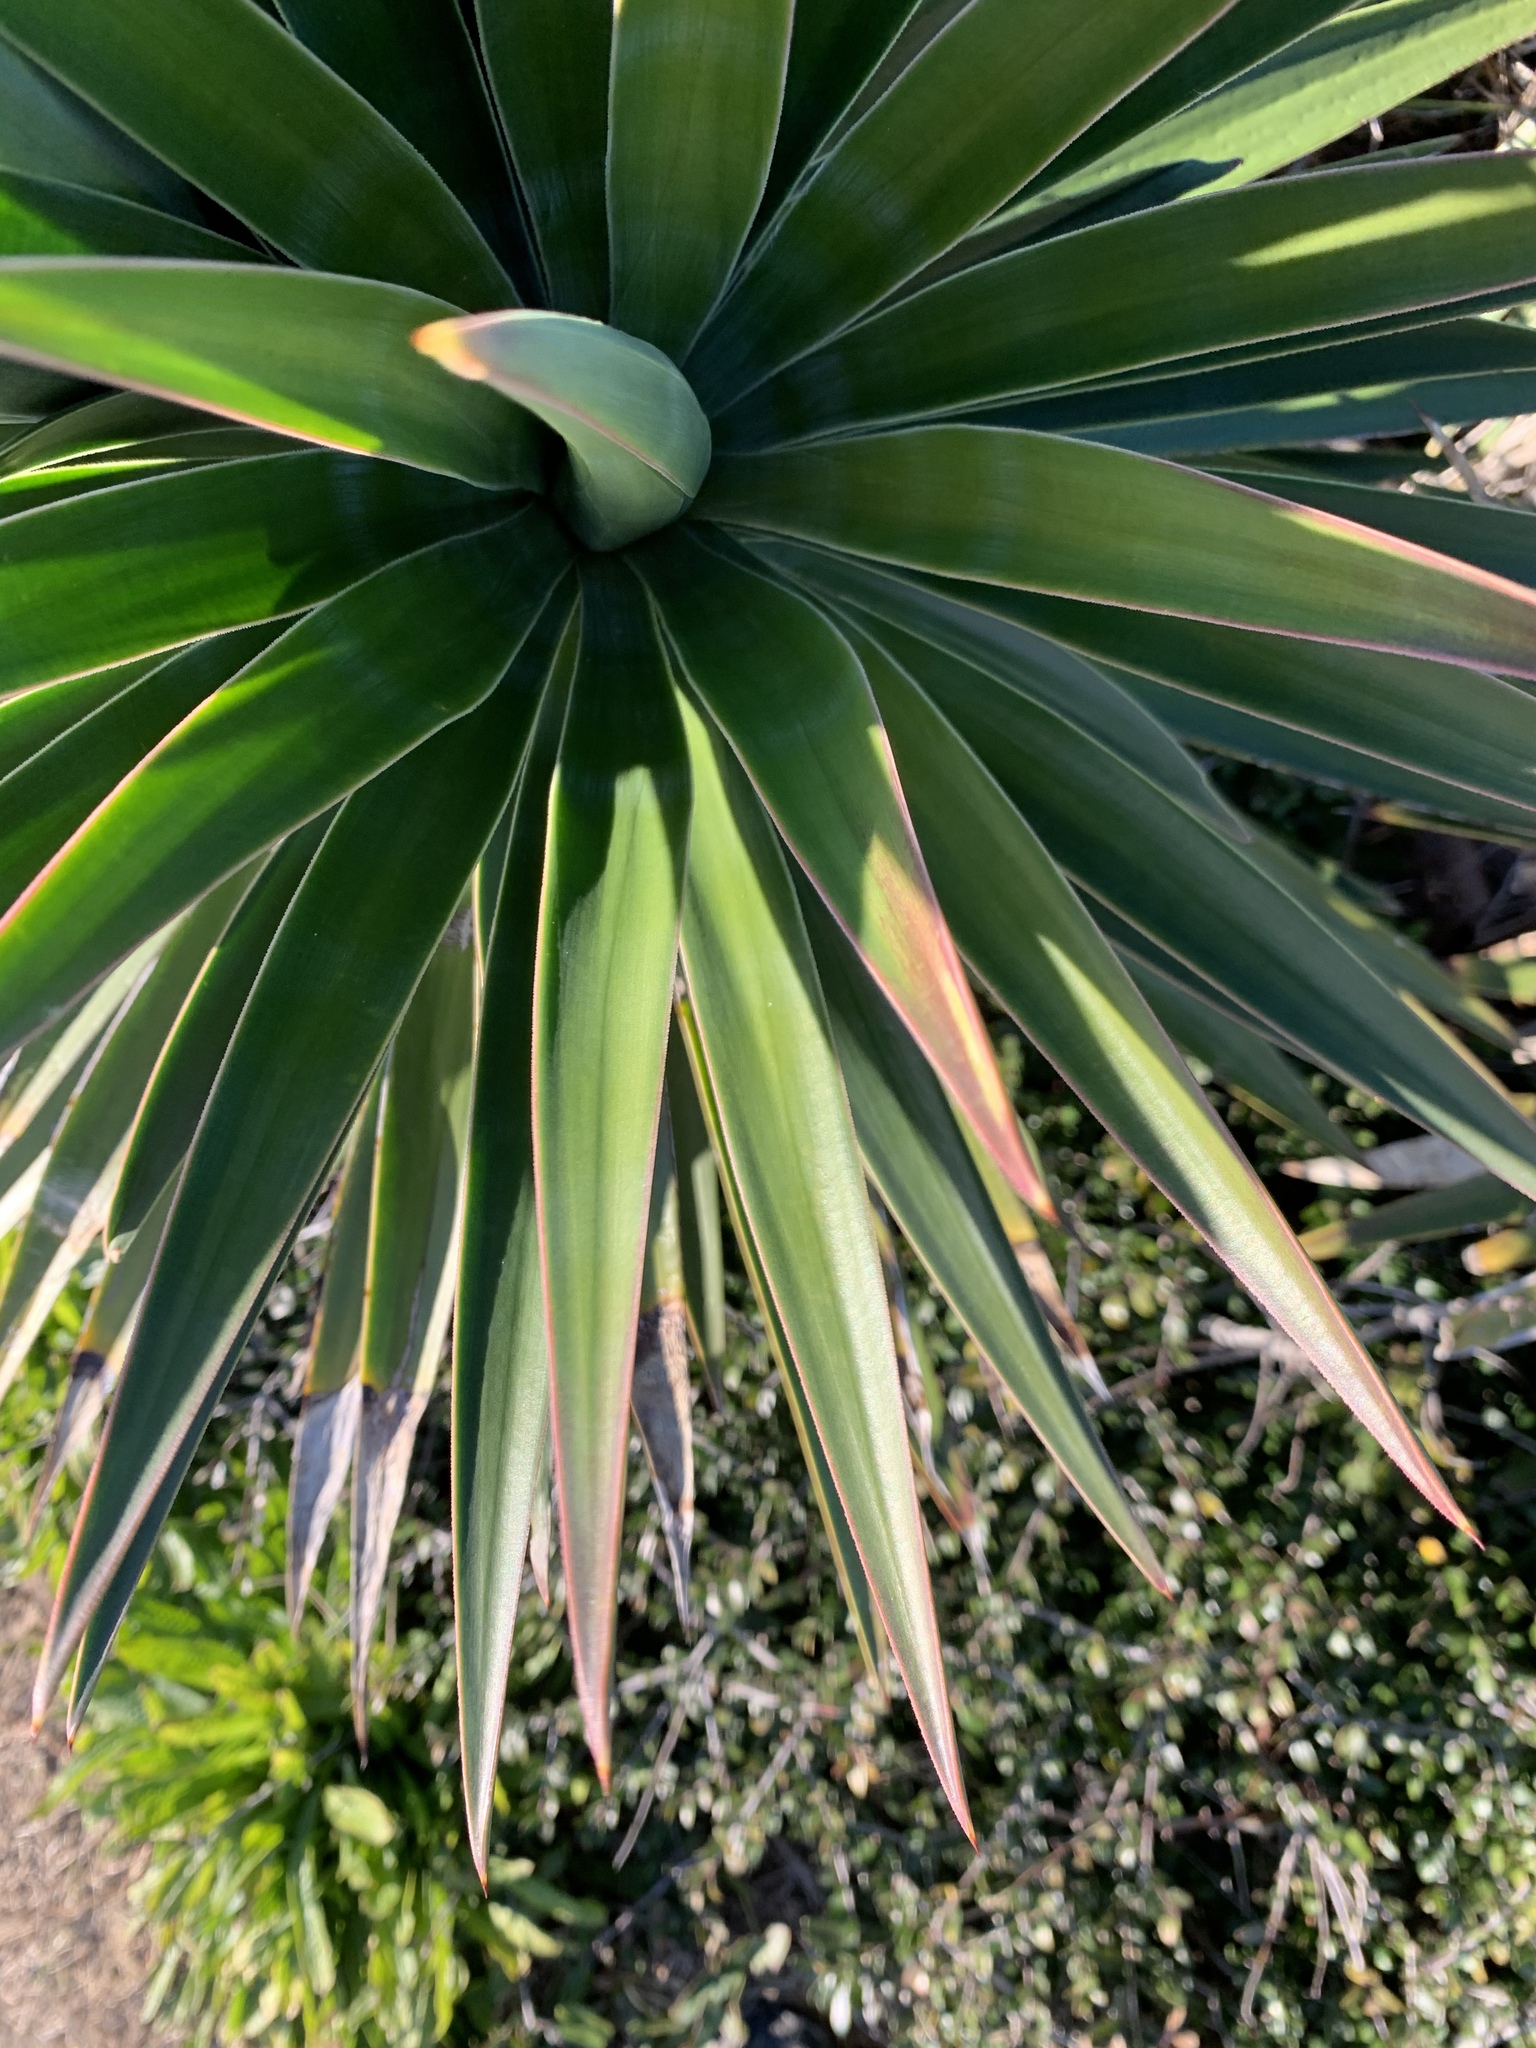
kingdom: Plantae
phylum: Tracheophyta
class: Liliopsida
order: Asparagales
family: Asparagaceae
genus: Yucca
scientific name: Yucca aloifolia
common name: Aloe yucca
